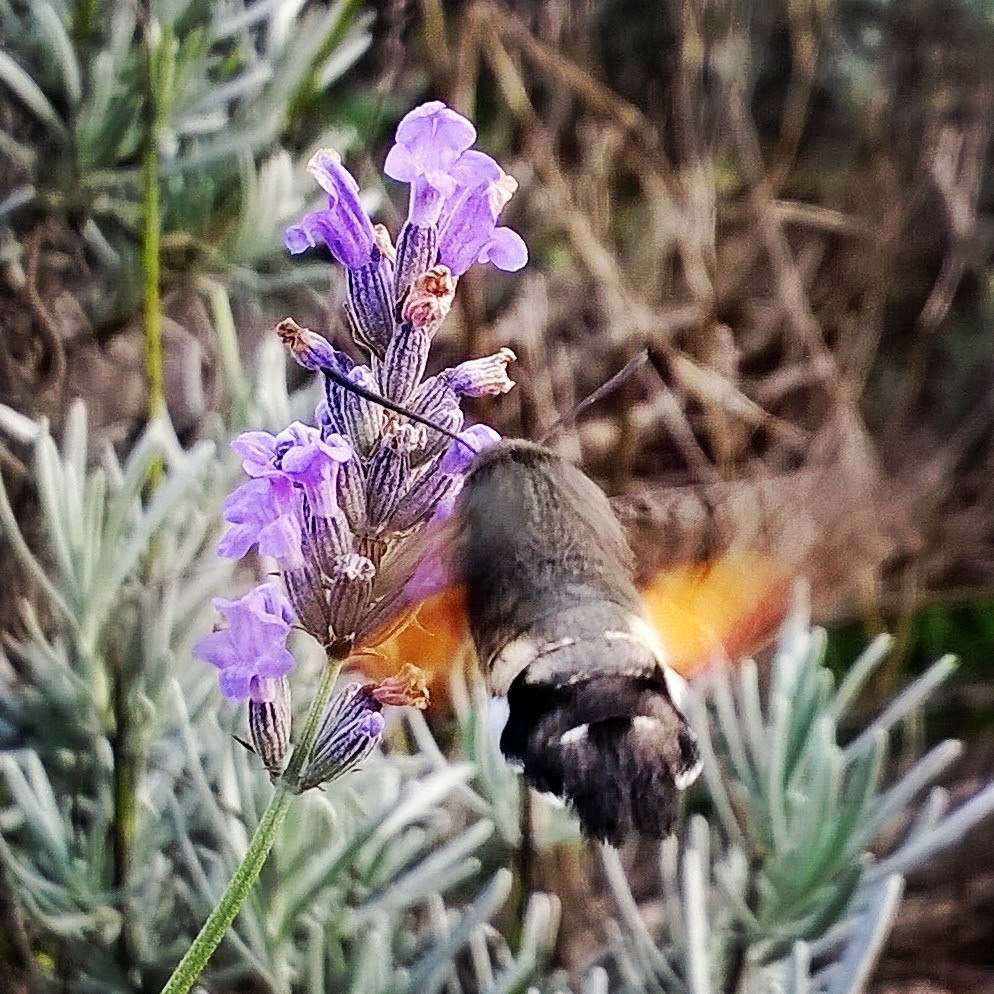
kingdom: Animalia
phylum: Arthropoda
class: Insecta
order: Lepidoptera
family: Sphingidae
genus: Macroglossum
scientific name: Macroglossum stellatarum
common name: Humming-bird hawk-moth
